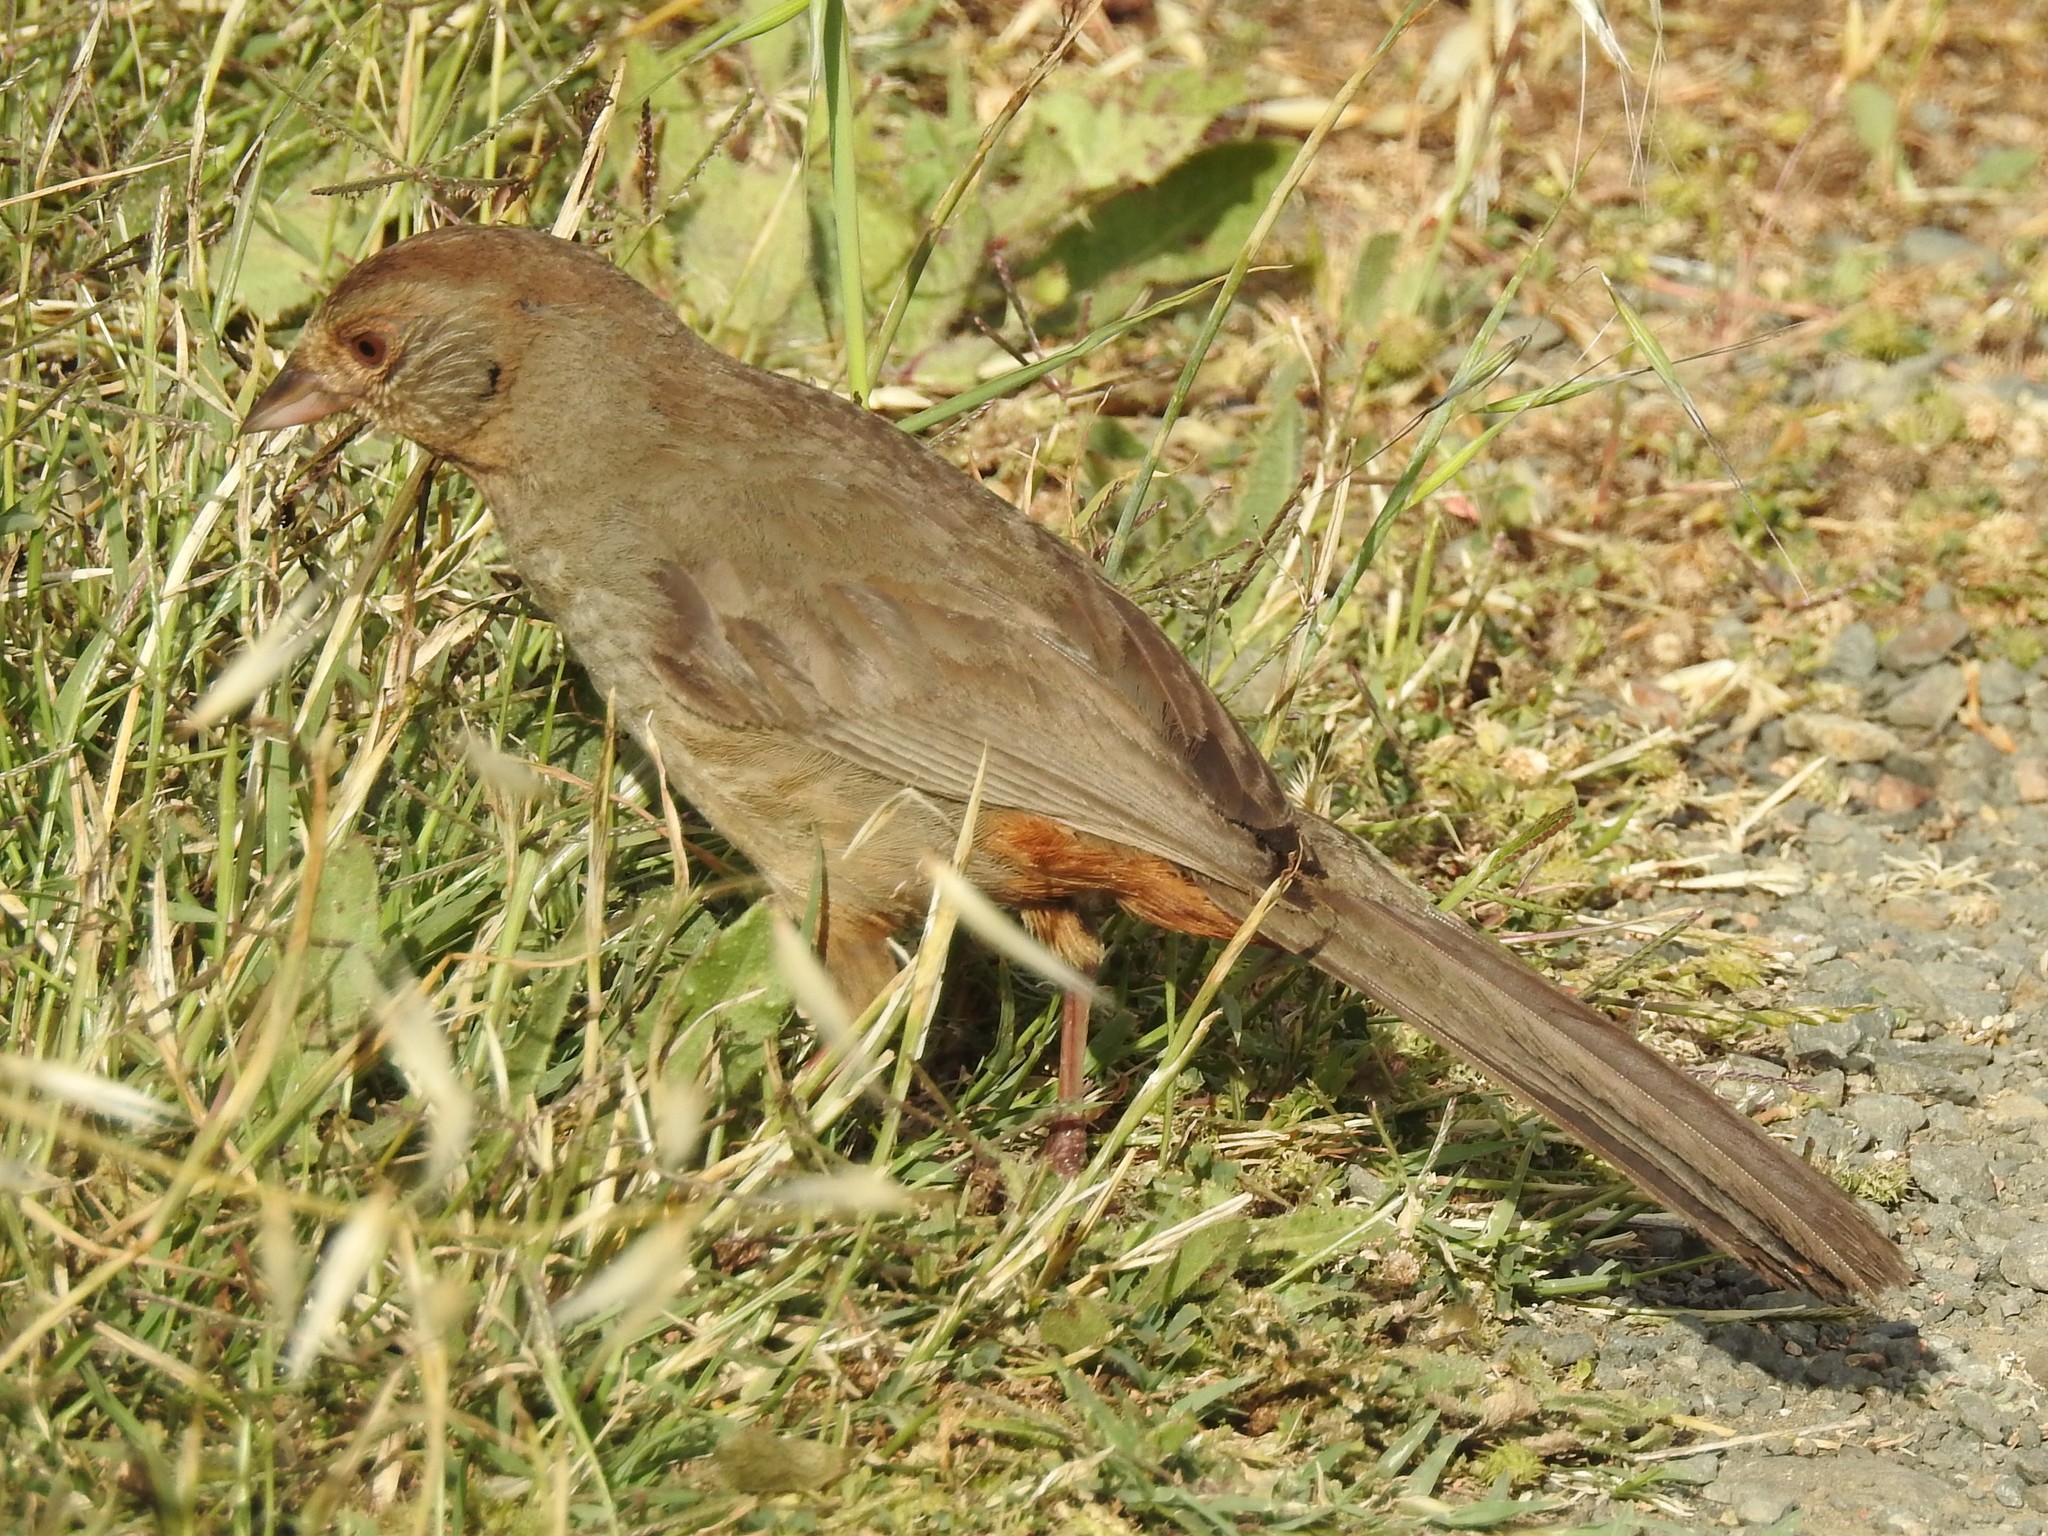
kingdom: Animalia
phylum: Chordata
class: Aves
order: Passeriformes
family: Passerellidae
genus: Melozone
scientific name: Melozone crissalis
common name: California towhee
